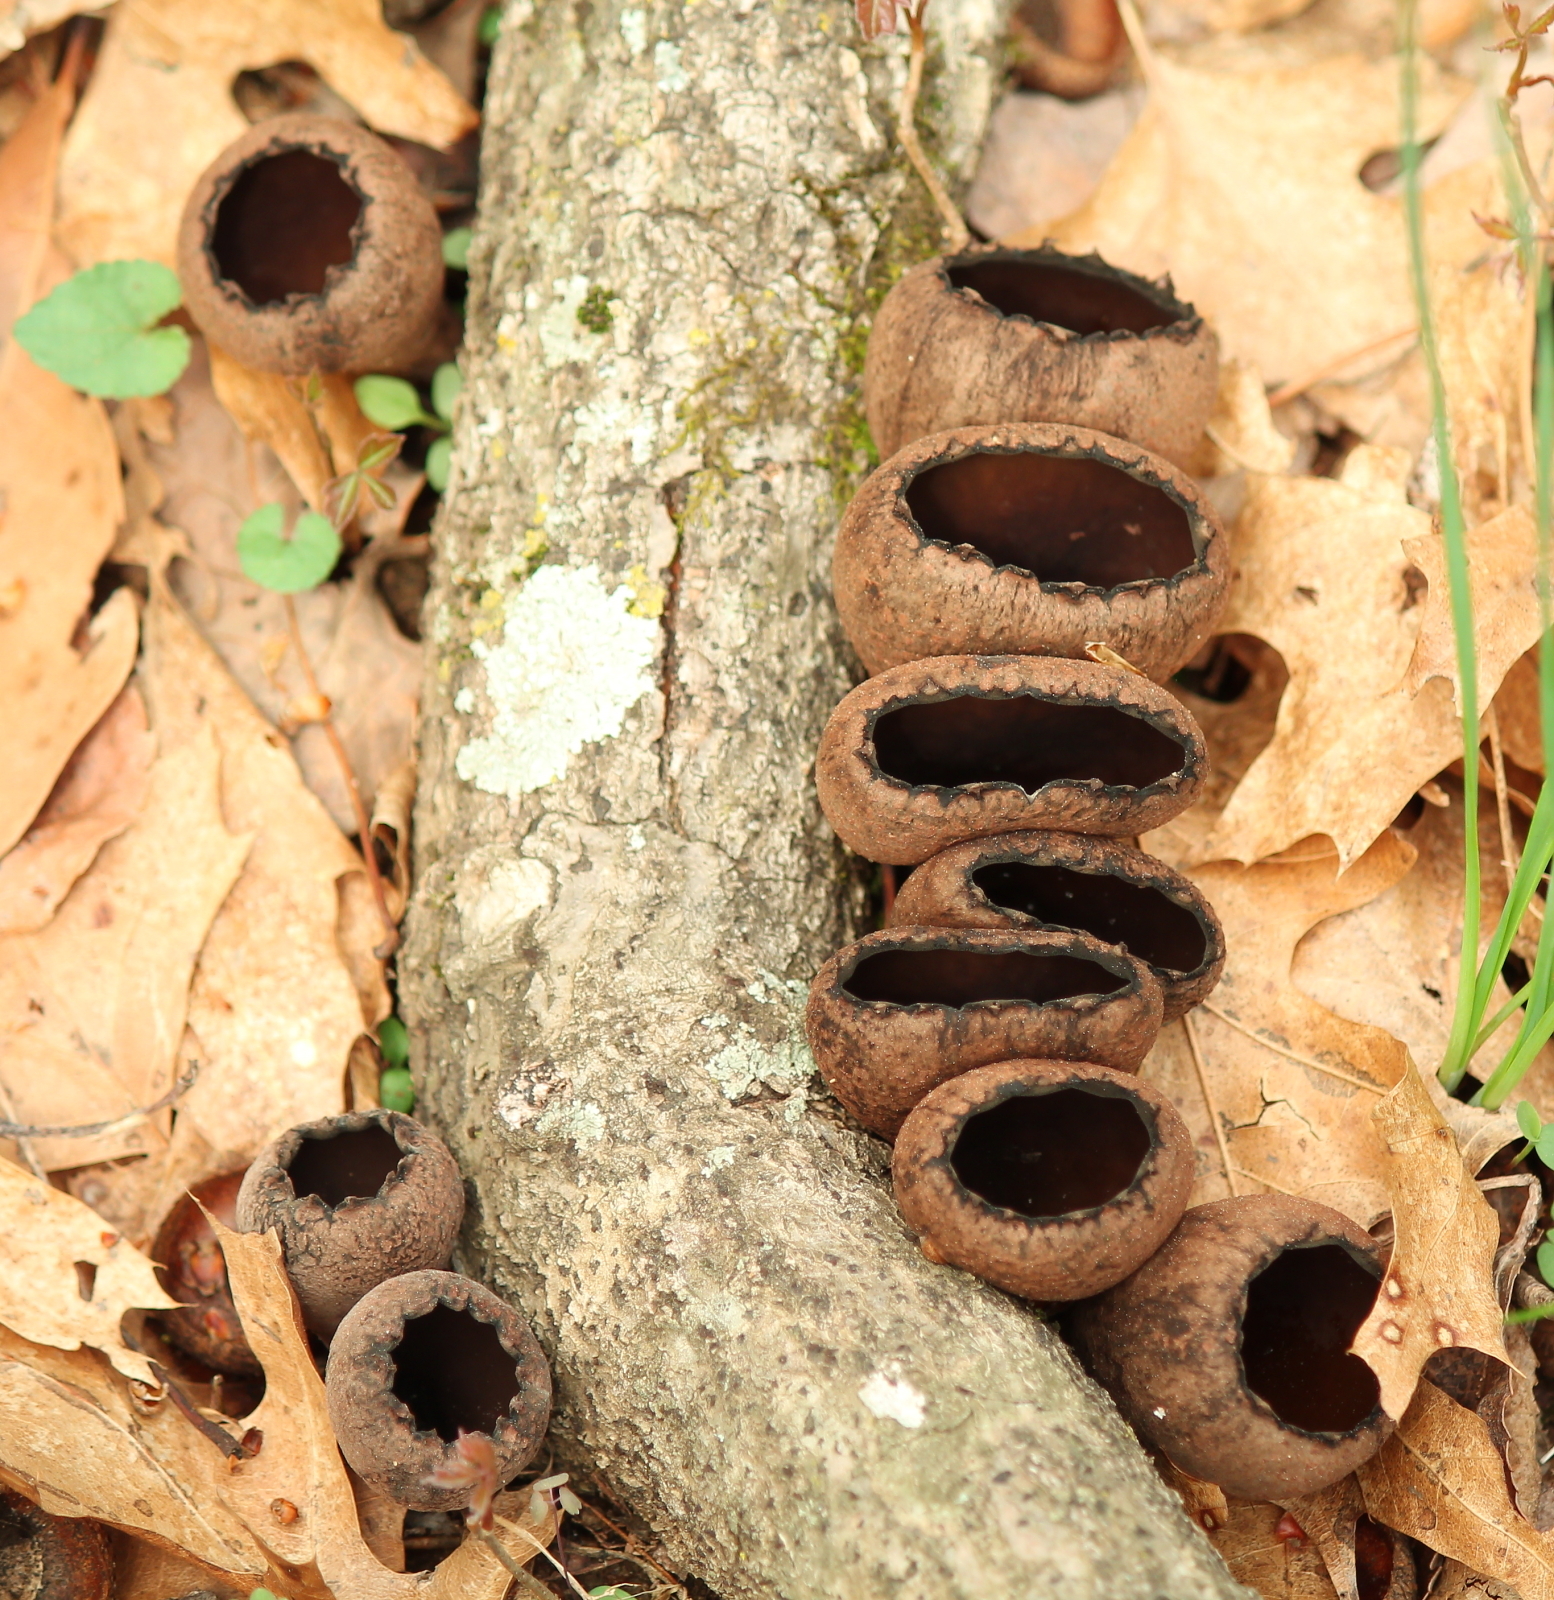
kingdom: Fungi
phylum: Ascomycota
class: Pezizomycetes
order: Pezizales
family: Sarcosomataceae
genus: Urnula
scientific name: Urnula craterium
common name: Devil's urn
